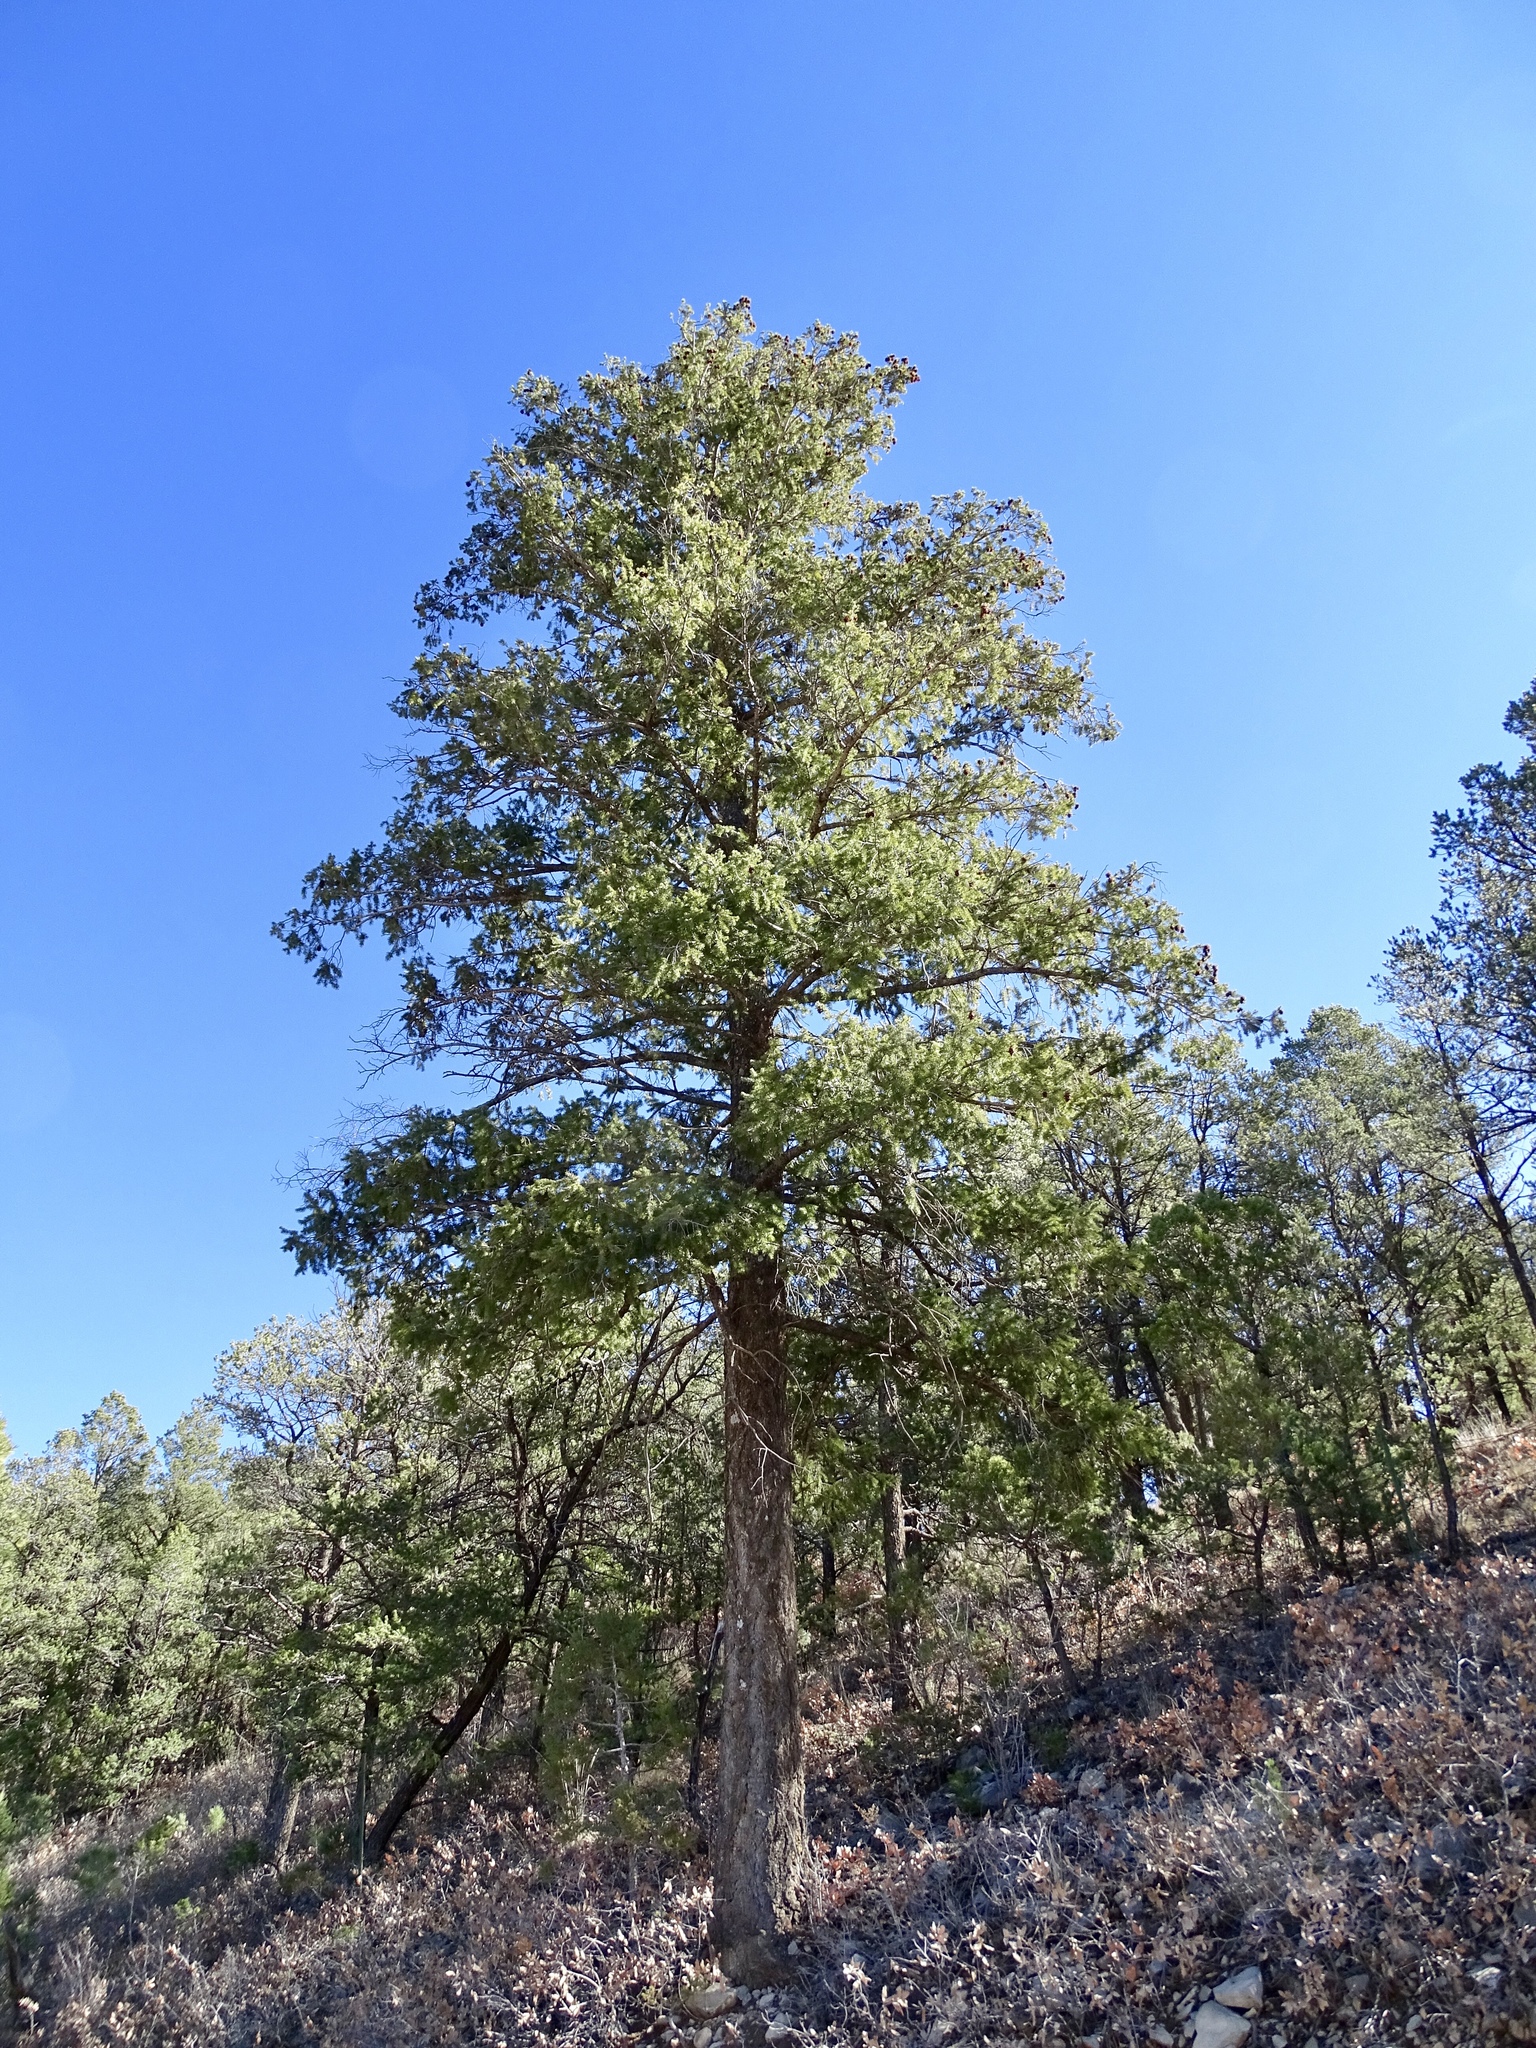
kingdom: Plantae
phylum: Tracheophyta
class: Pinopsida
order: Pinales
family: Pinaceae
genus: Pseudotsuga
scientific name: Pseudotsuga menziesii
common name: Douglas fir
